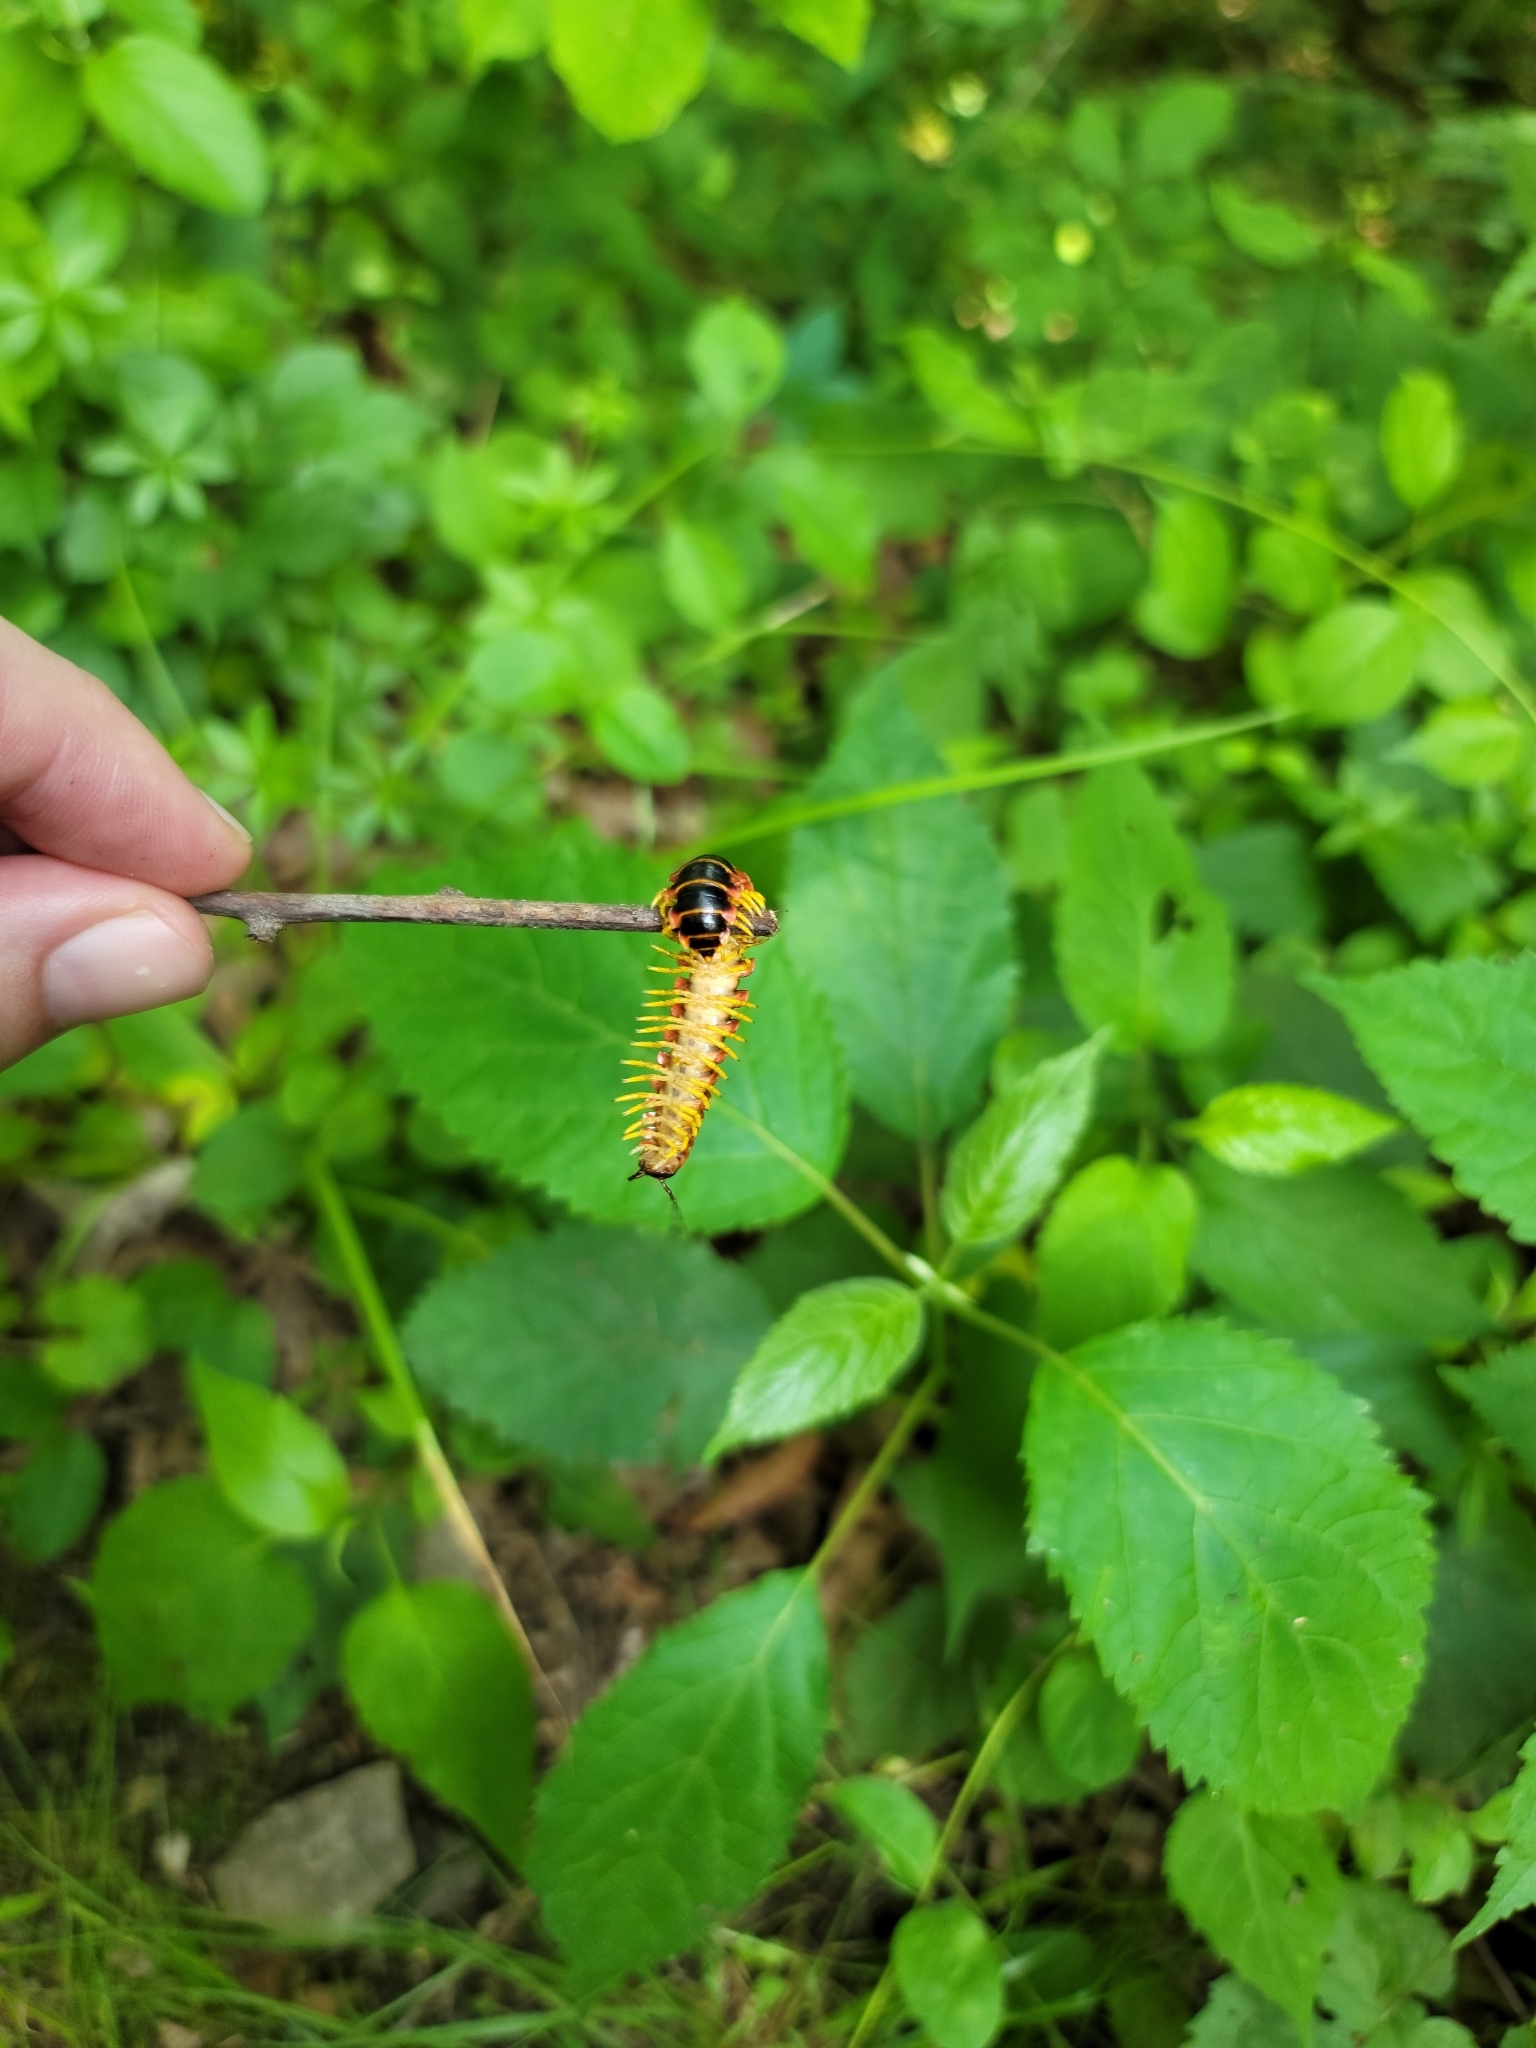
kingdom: Animalia
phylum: Arthropoda
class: Diplopoda
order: Polydesmida
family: Xystodesmidae
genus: Apheloria
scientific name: Apheloria virginiensis
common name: Black-and-gold flat millipede
